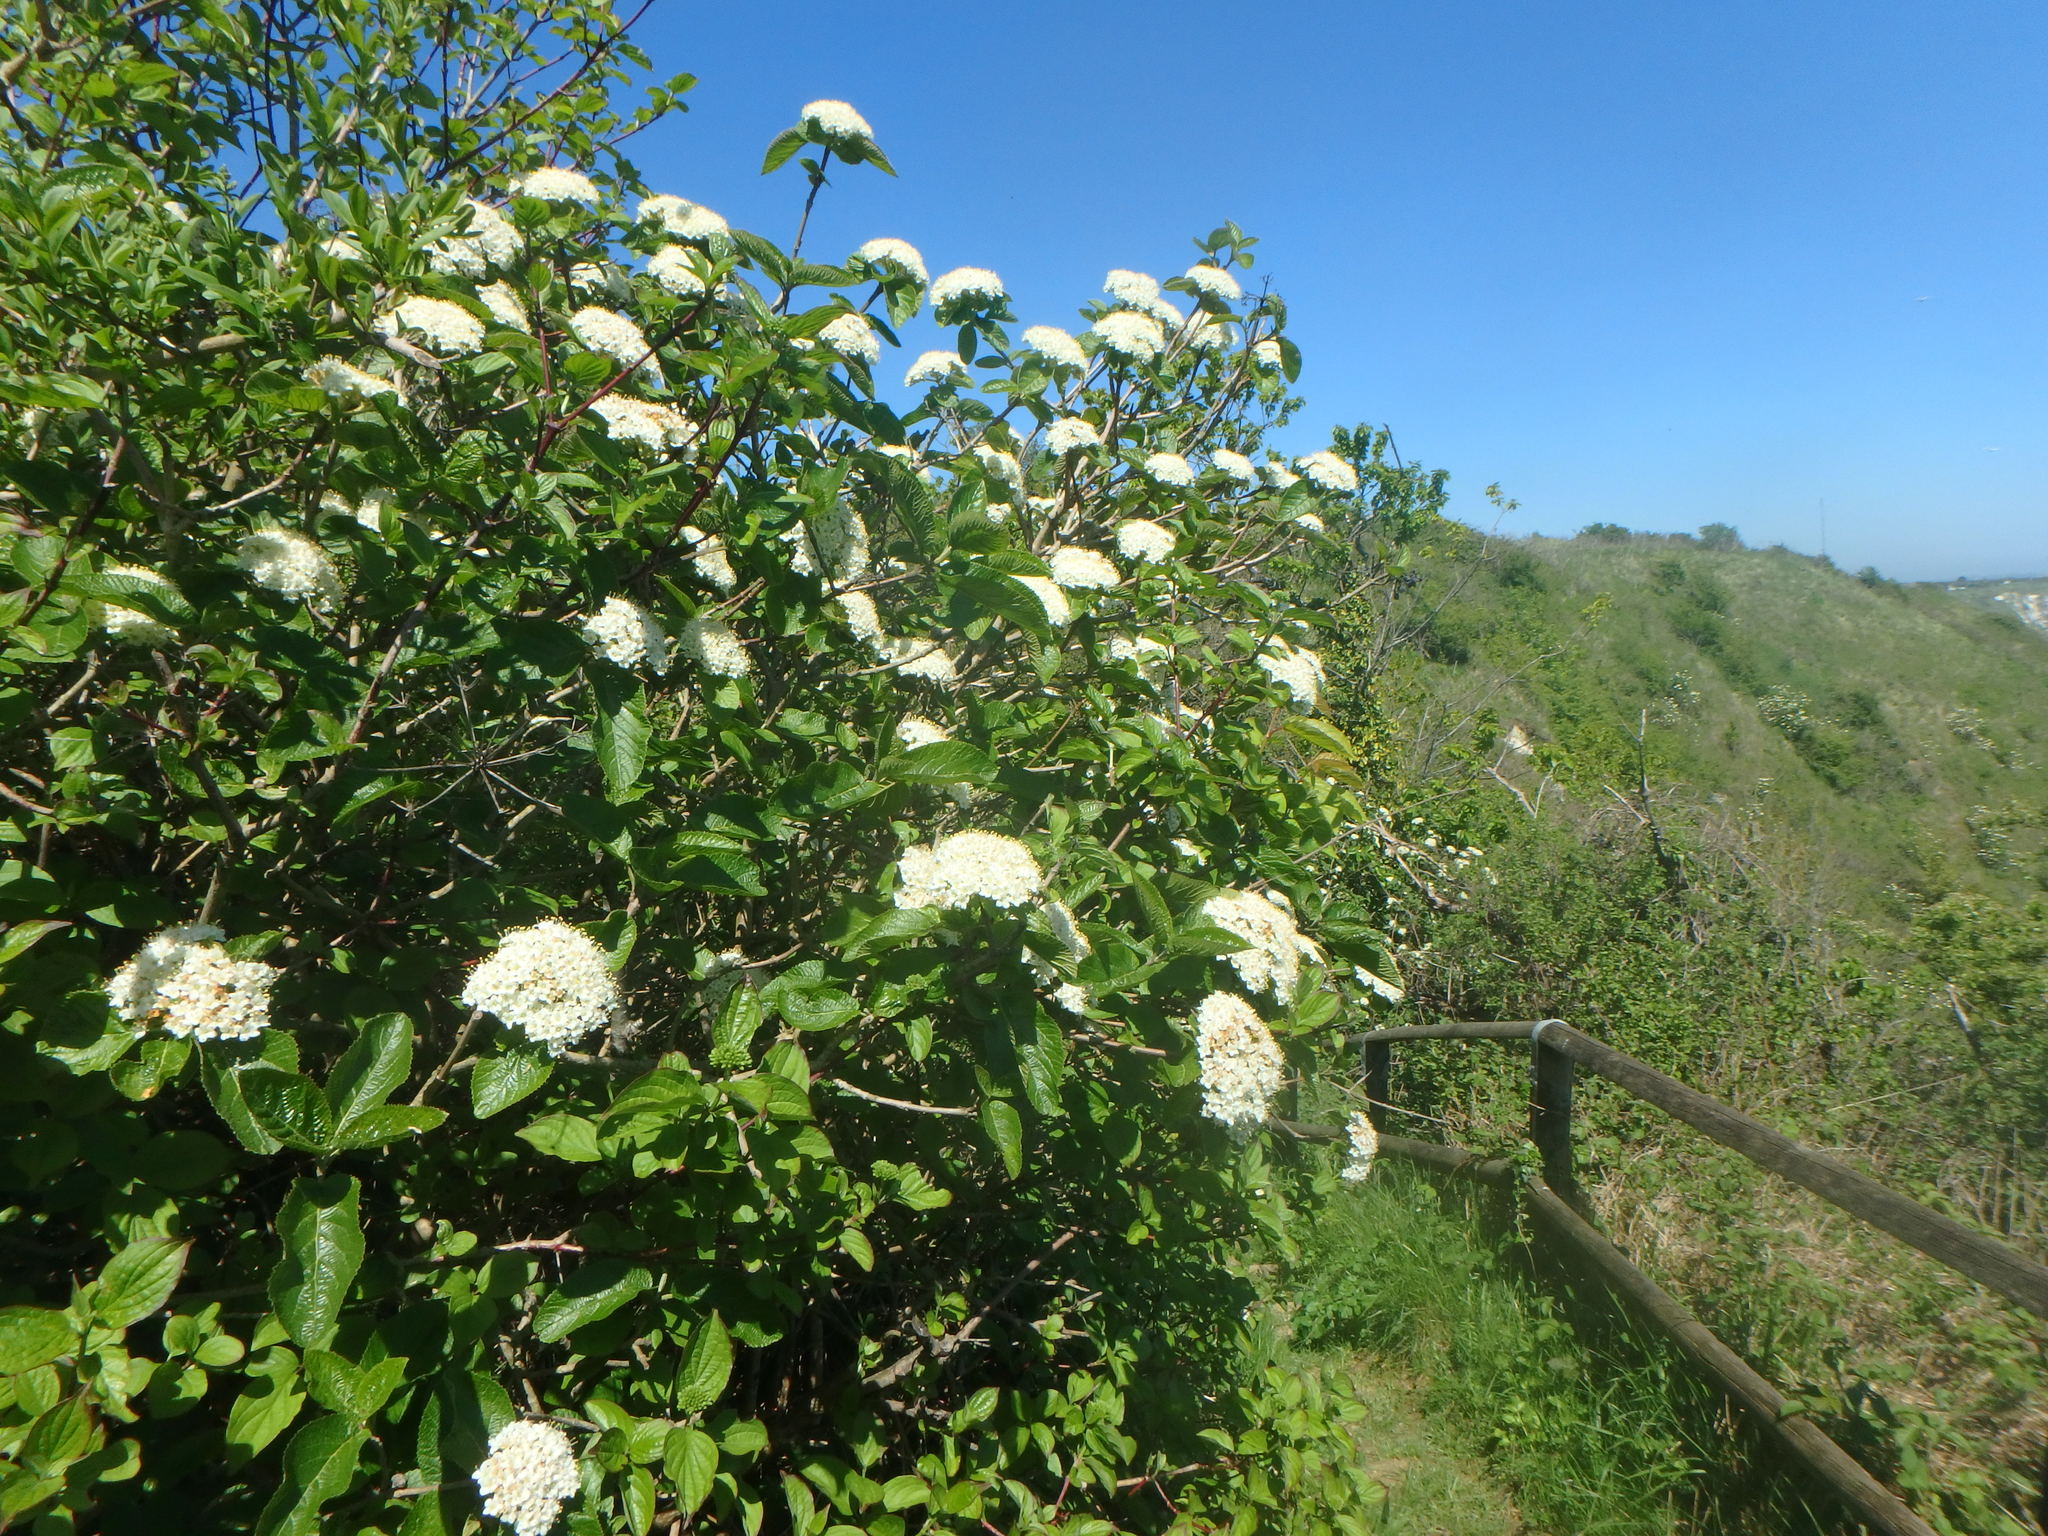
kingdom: Plantae
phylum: Tracheophyta
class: Magnoliopsida
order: Dipsacales
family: Viburnaceae
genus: Viburnum
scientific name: Viburnum lantana
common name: Wayfaring tree
